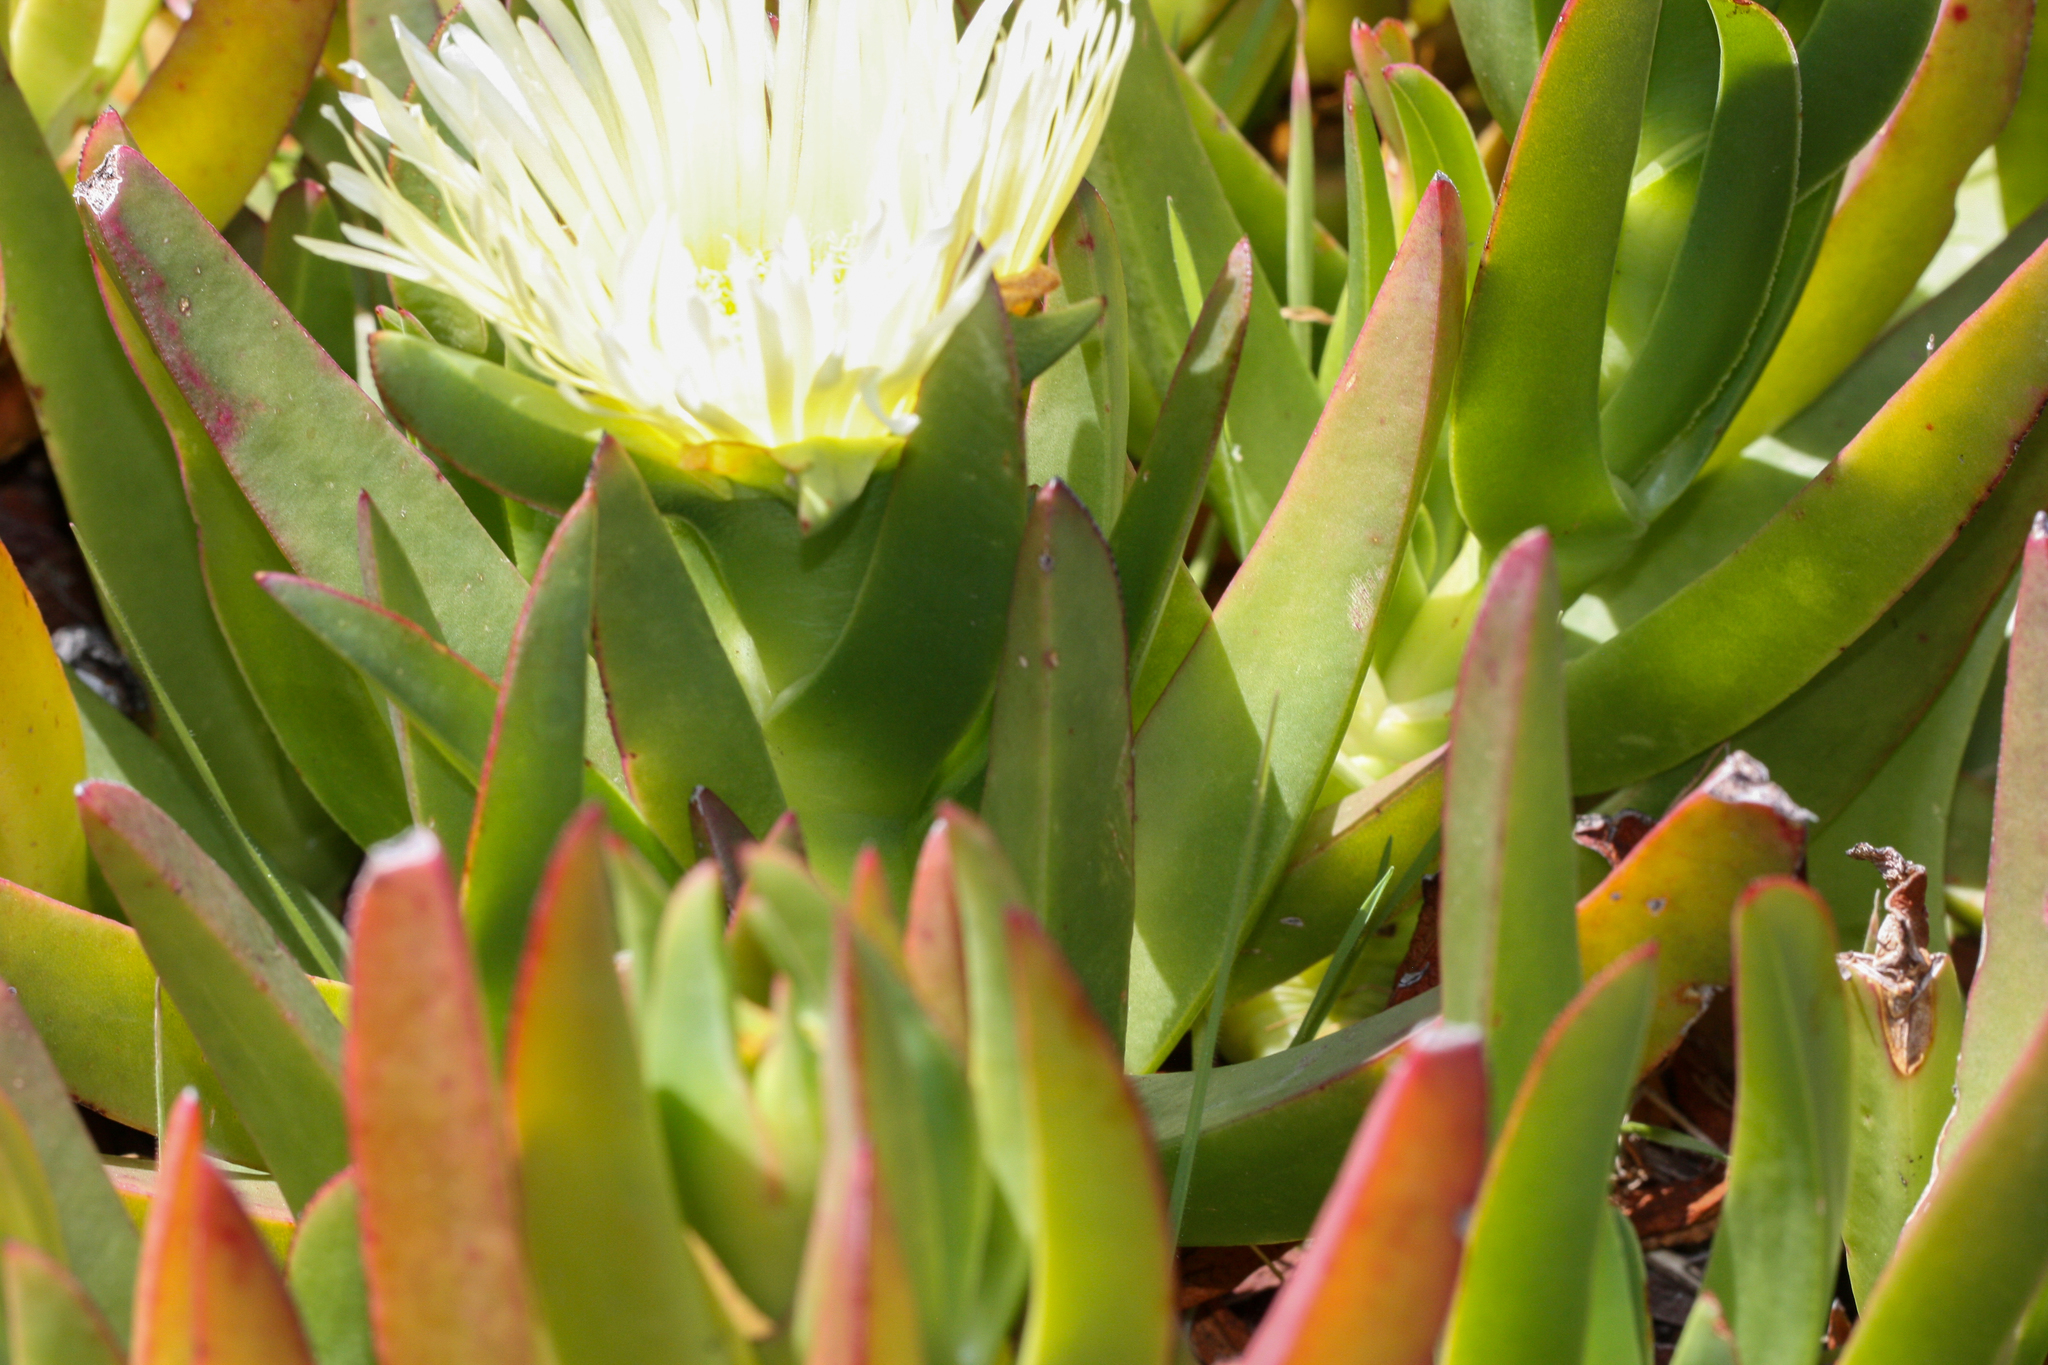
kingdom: Plantae
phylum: Tracheophyta
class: Magnoliopsida
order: Caryophyllales
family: Aizoaceae
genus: Carpobrotus
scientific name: Carpobrotus edulis
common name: Hottentot-fig
